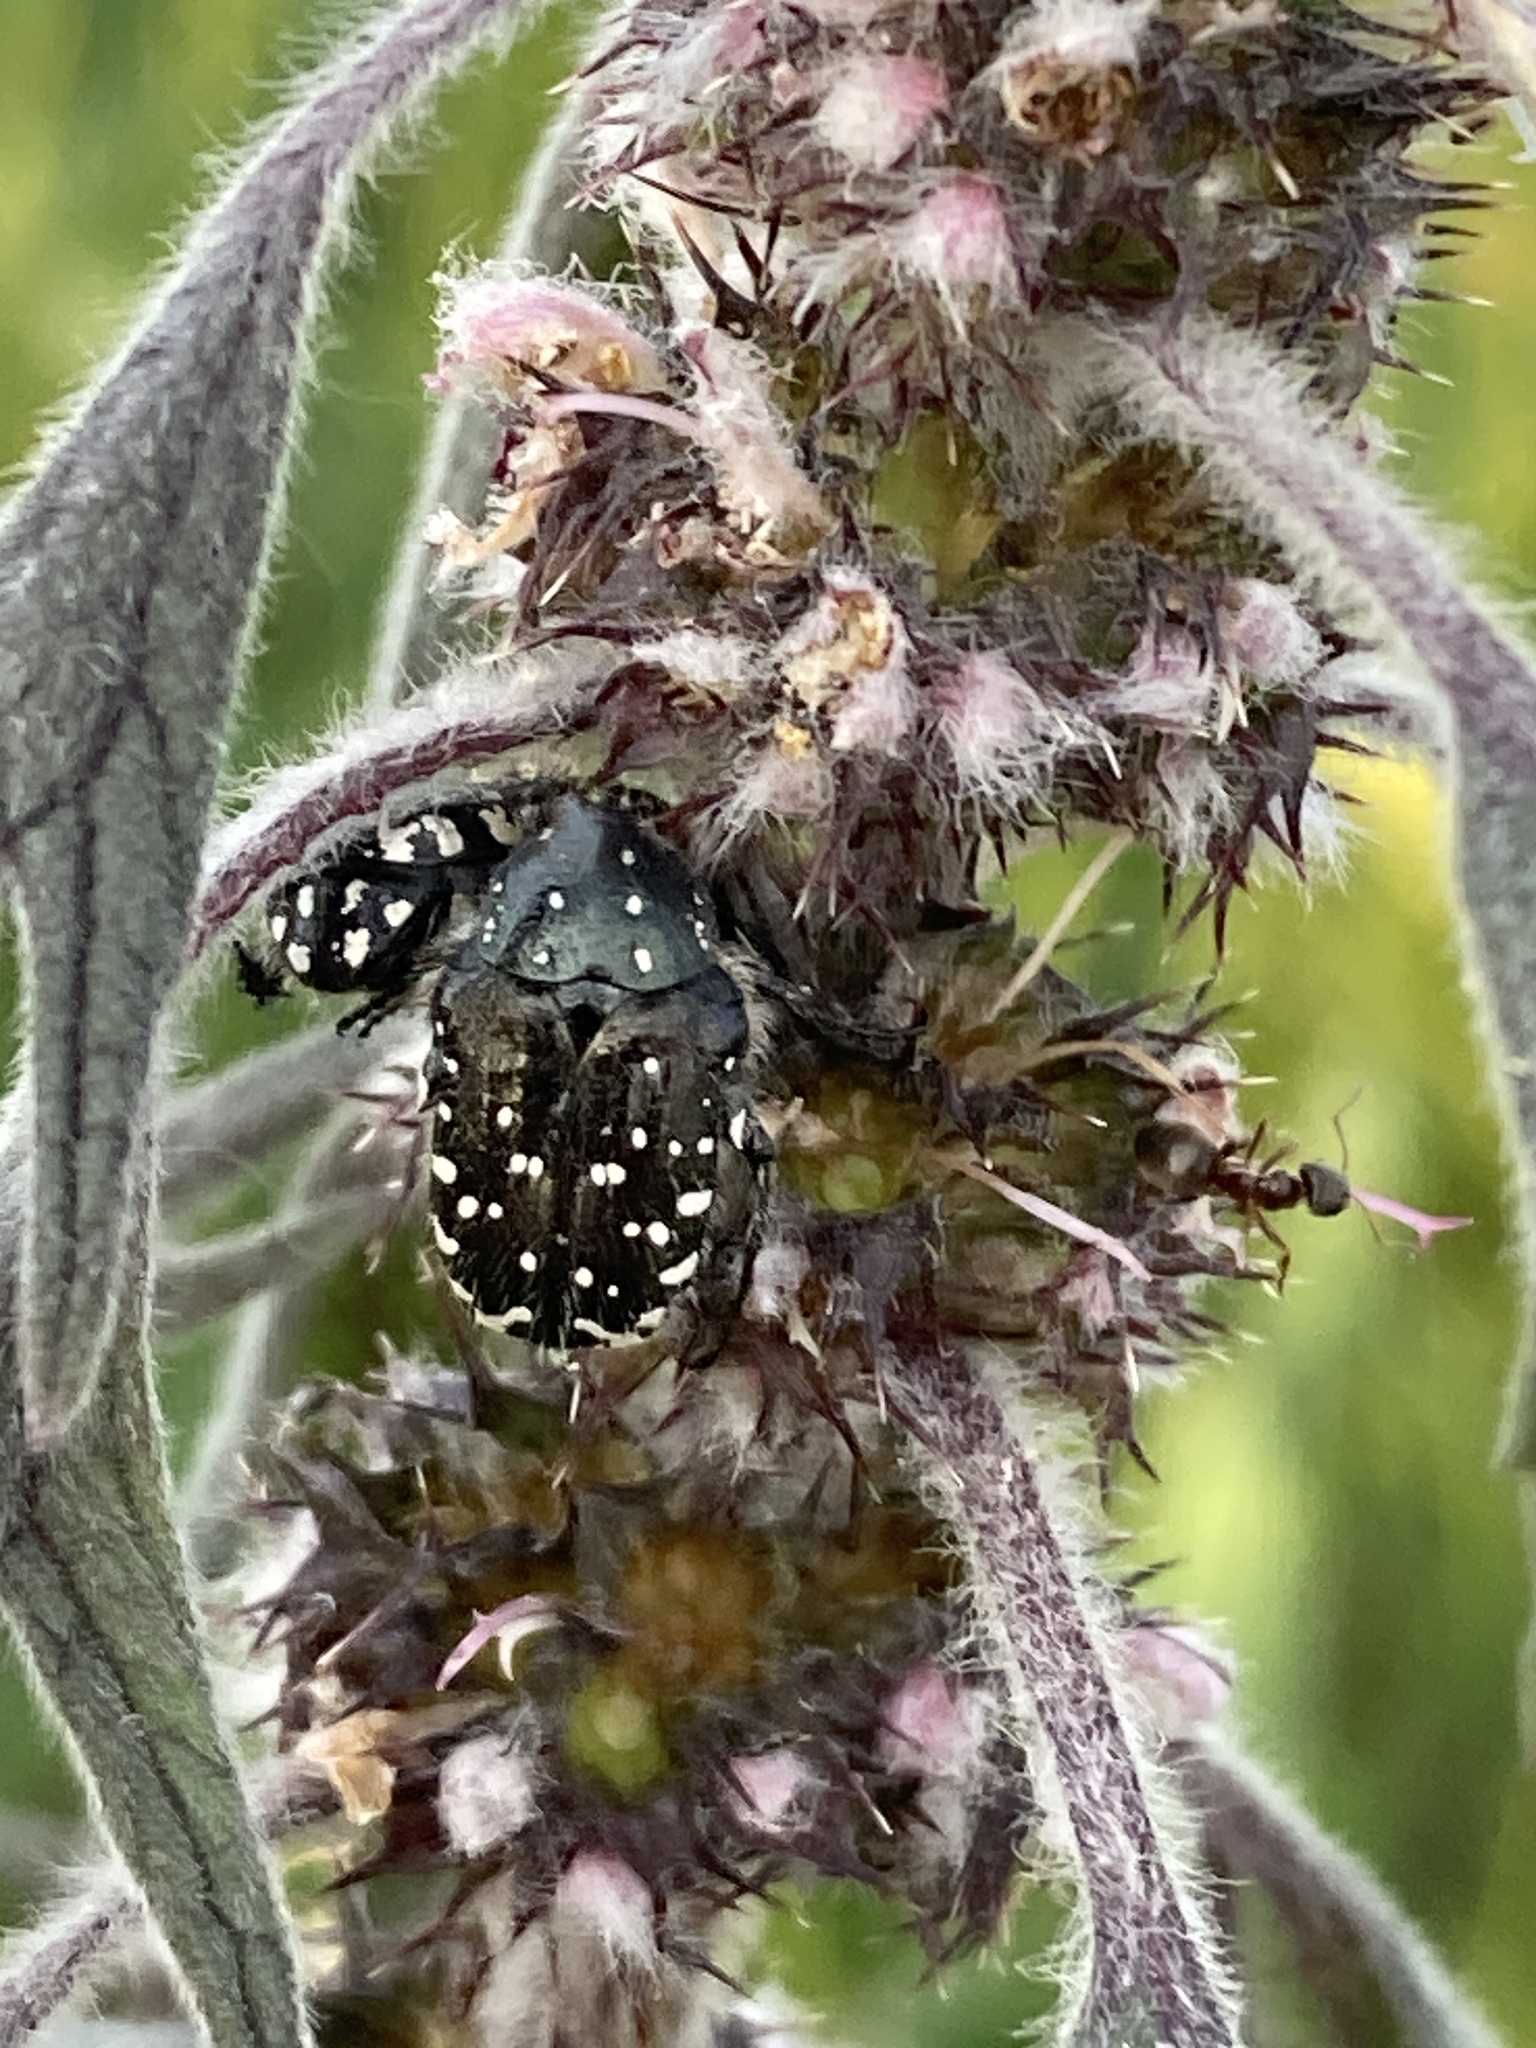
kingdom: Animalia
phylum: Arthropoda
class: Insecta
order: Coleoptera
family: Scarabaeidae
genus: Oxythyrea
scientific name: Oxythyrea funesta
